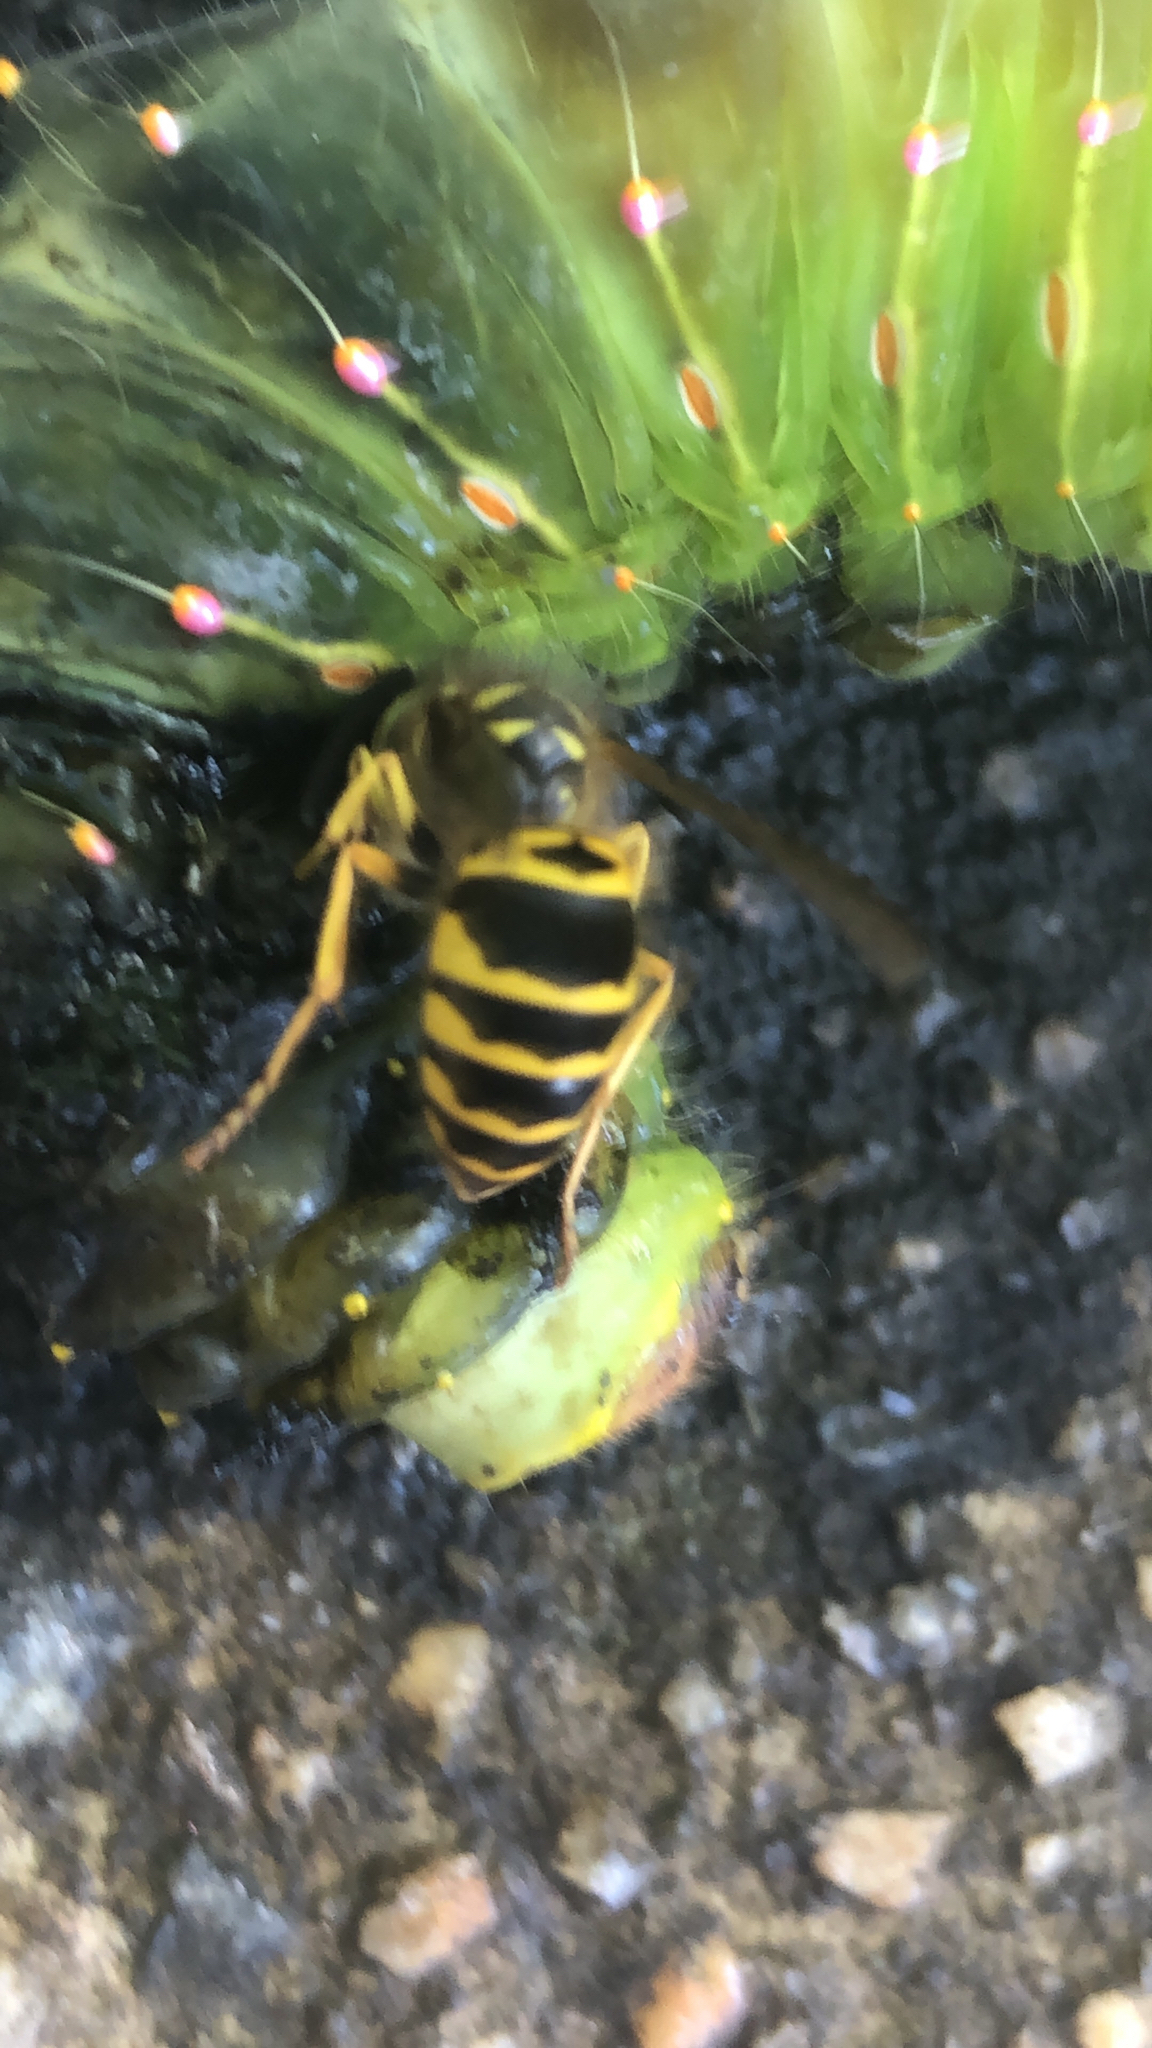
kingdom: Animalia
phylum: Arthropoda
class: Insecta
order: Hymenoptera
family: Vespidae
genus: Vespula
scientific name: Vespula maculifrons
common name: Eastern yellowjacket
